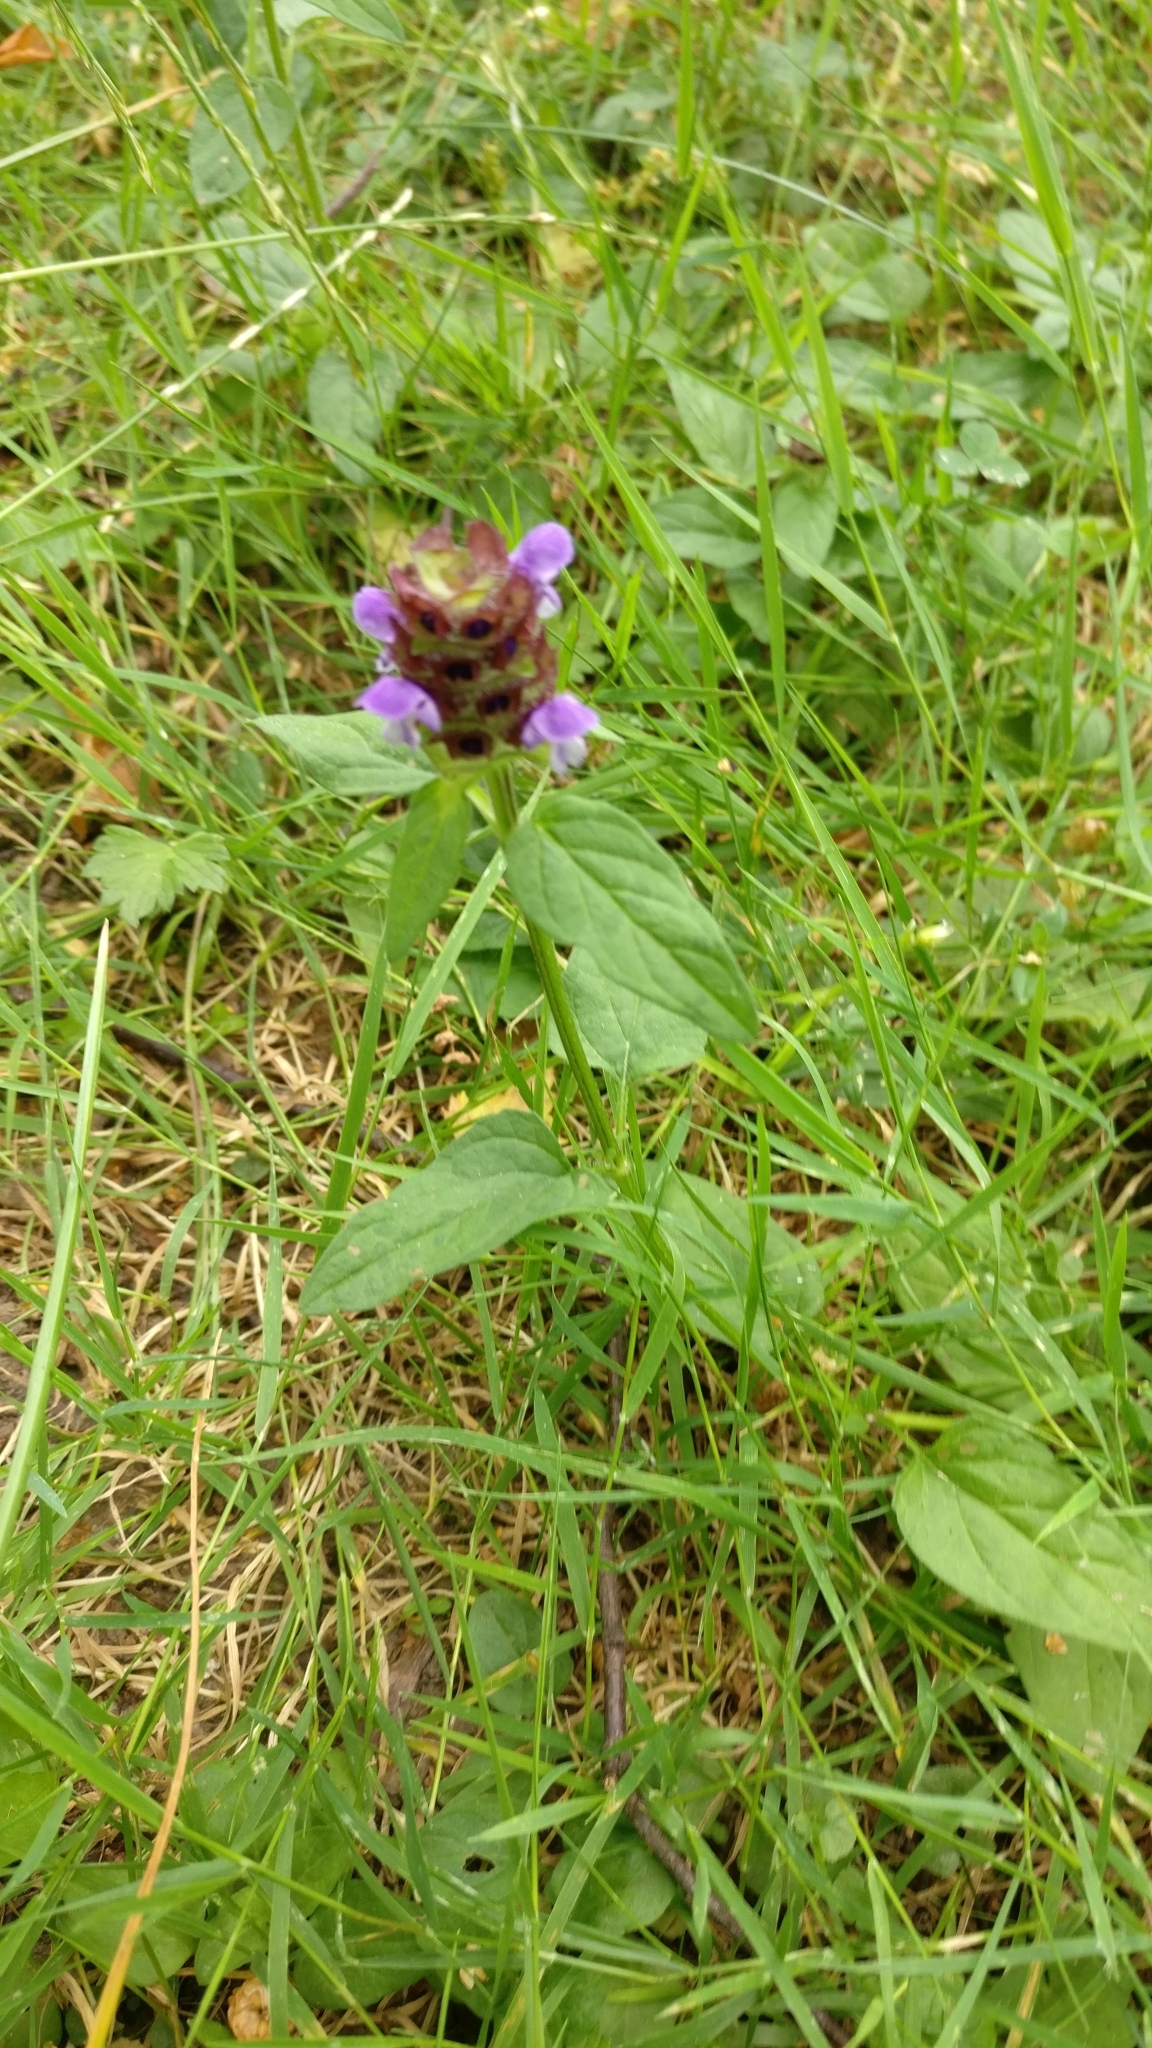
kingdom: Plantae
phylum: Tracheophyta
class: Magnoliopsida
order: Lamiales
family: Lamiaceae
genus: Prunella
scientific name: Prunella vulgaris
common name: Heal-all
